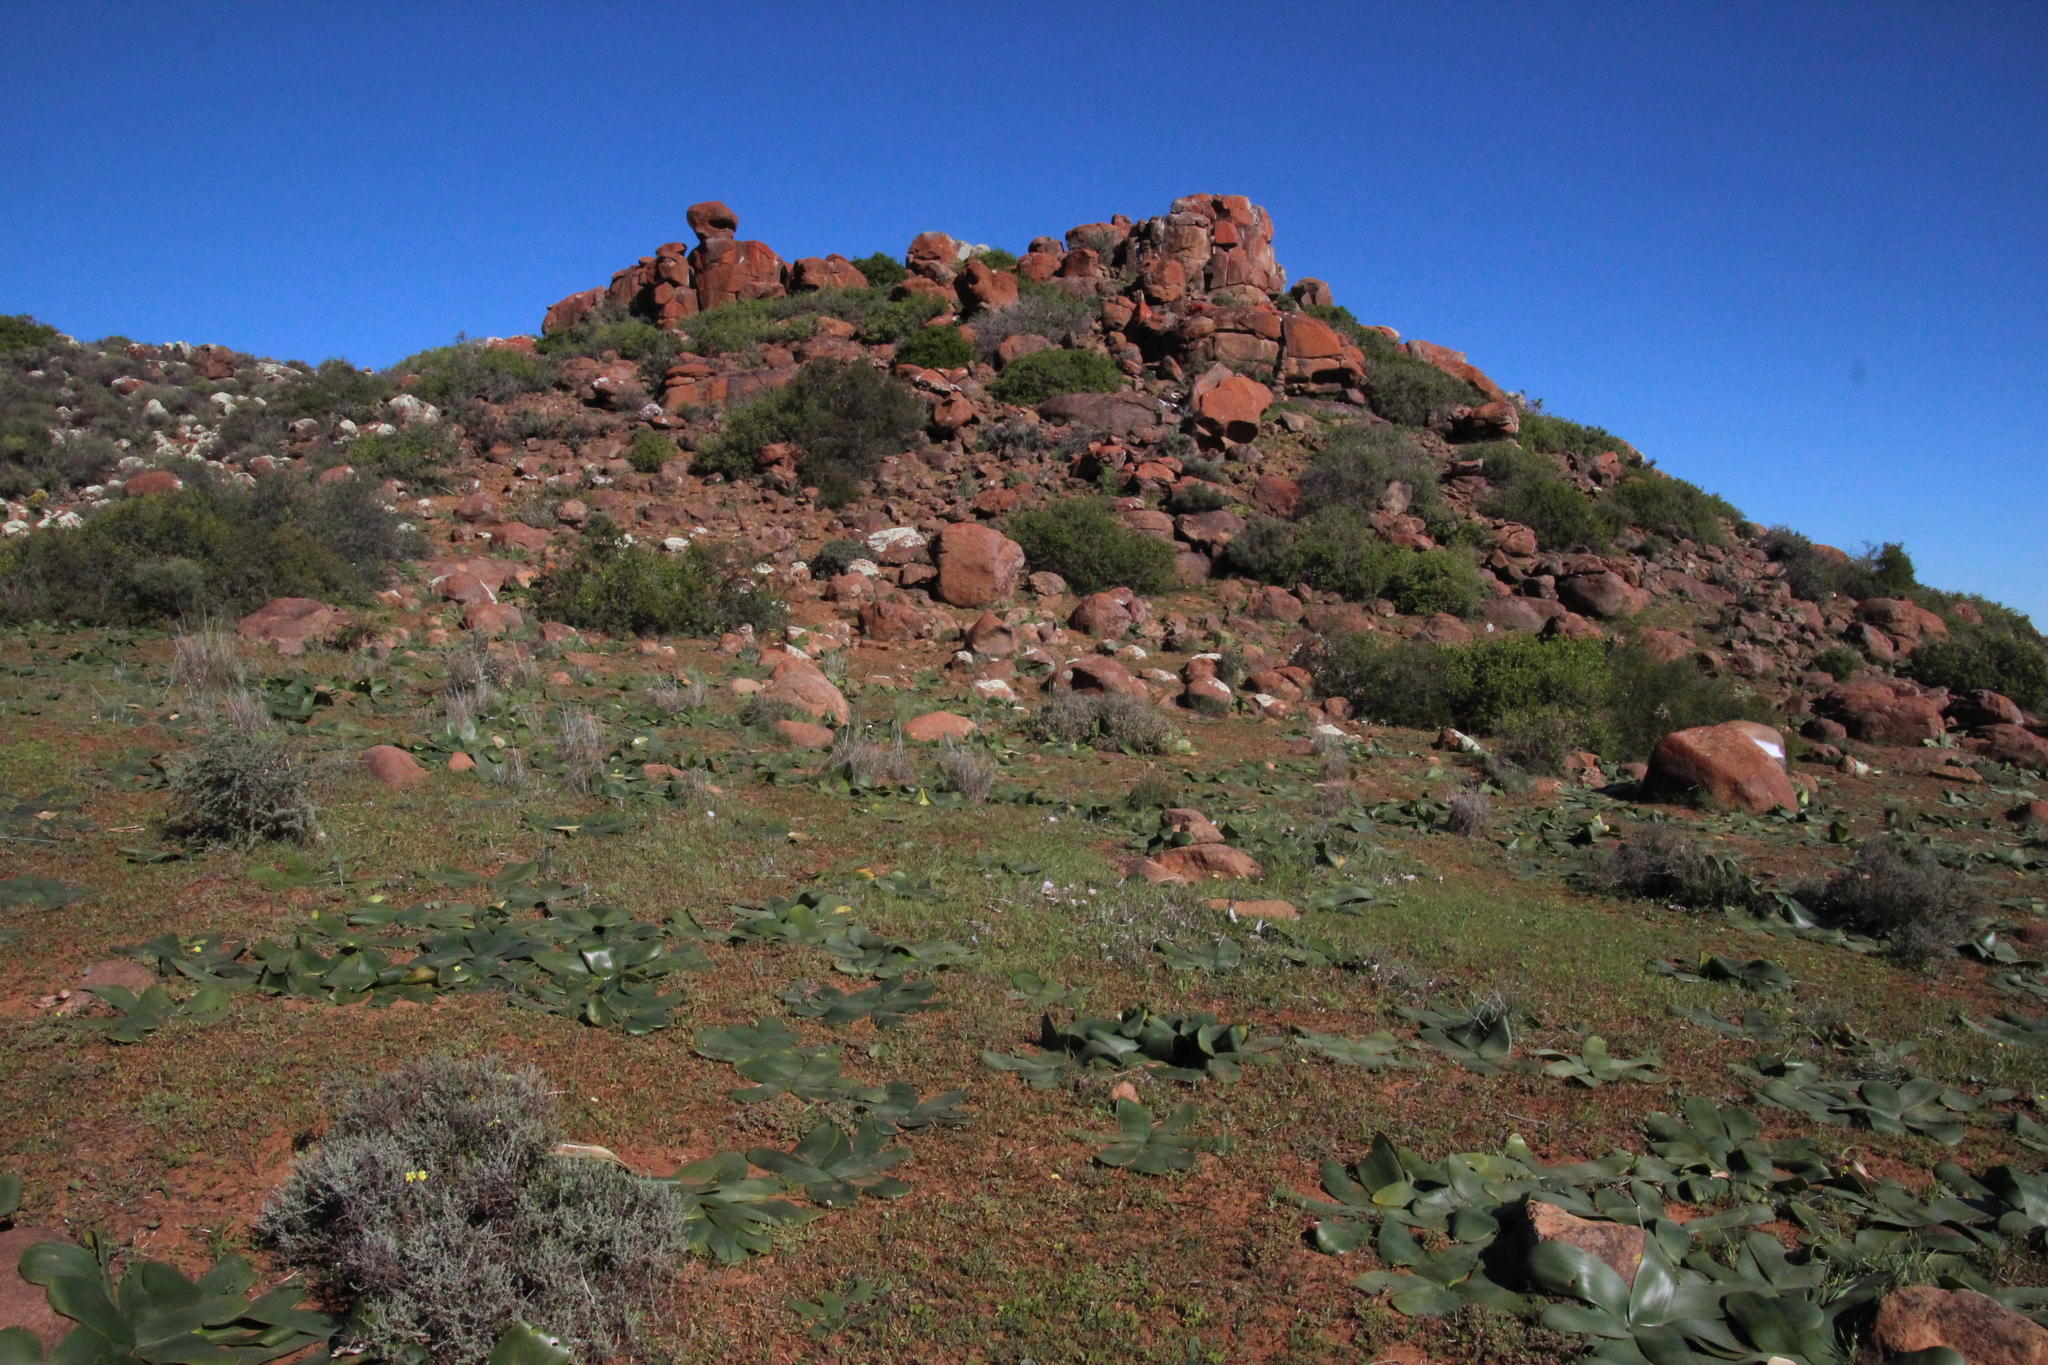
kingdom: Plantae
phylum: Tracheophyta
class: Liliopsida
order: Asparagales
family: Amaryllidaceae
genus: Brunsvigia
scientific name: Brunsvigia bosmaniae
